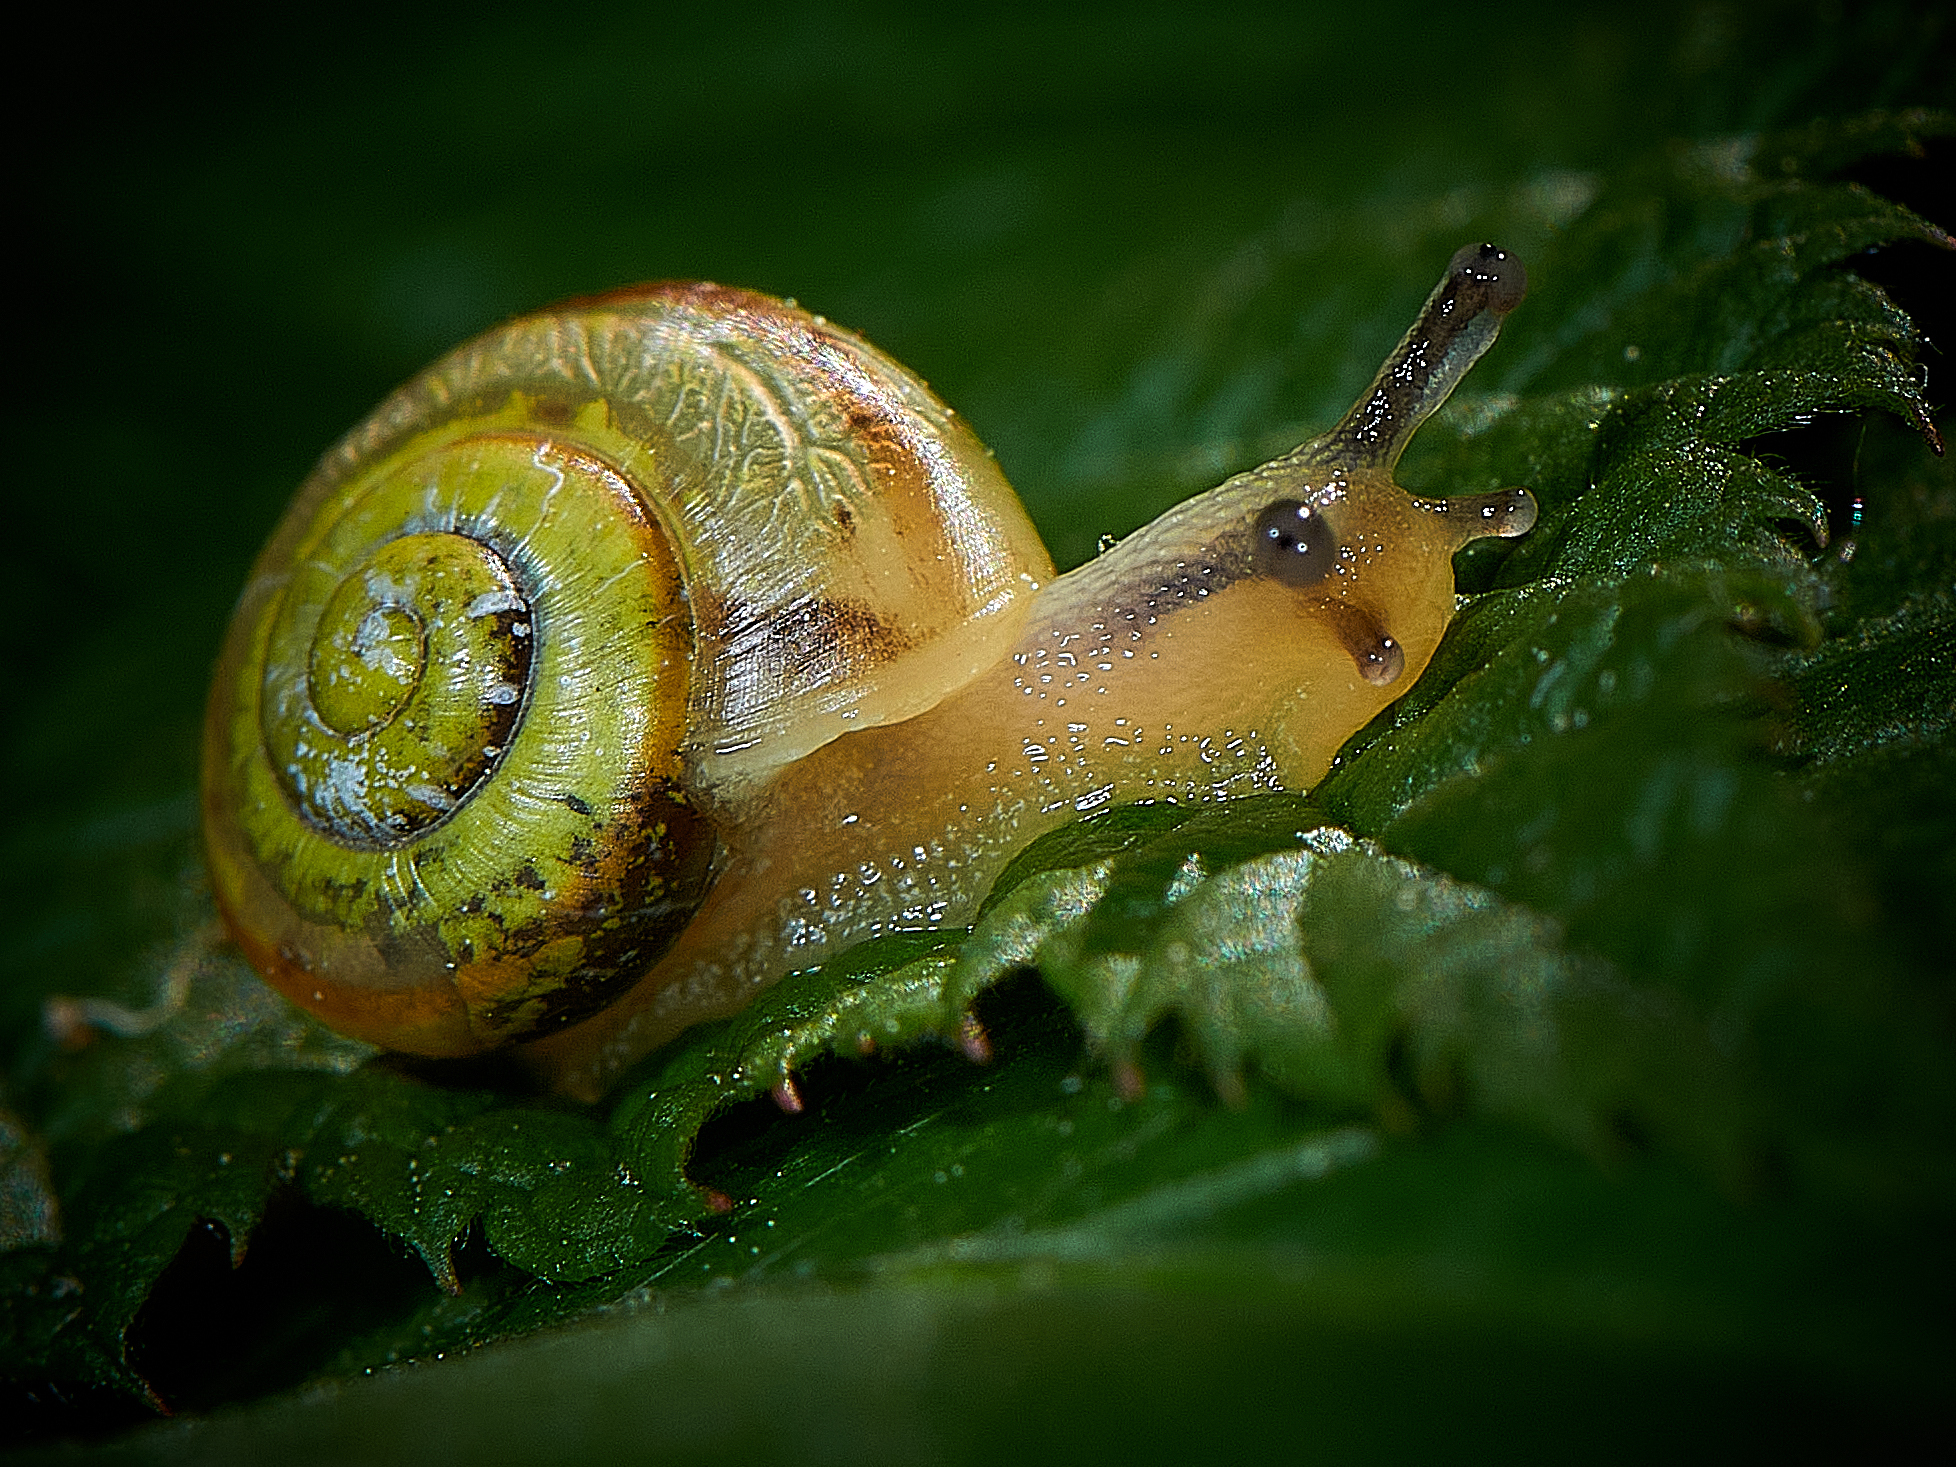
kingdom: Animalia
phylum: Mollusca
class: Gastropoda
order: Stylommatophora
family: Camaenidae
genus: Fruticicola
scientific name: Fruticicola fruticum
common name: Bush snail
